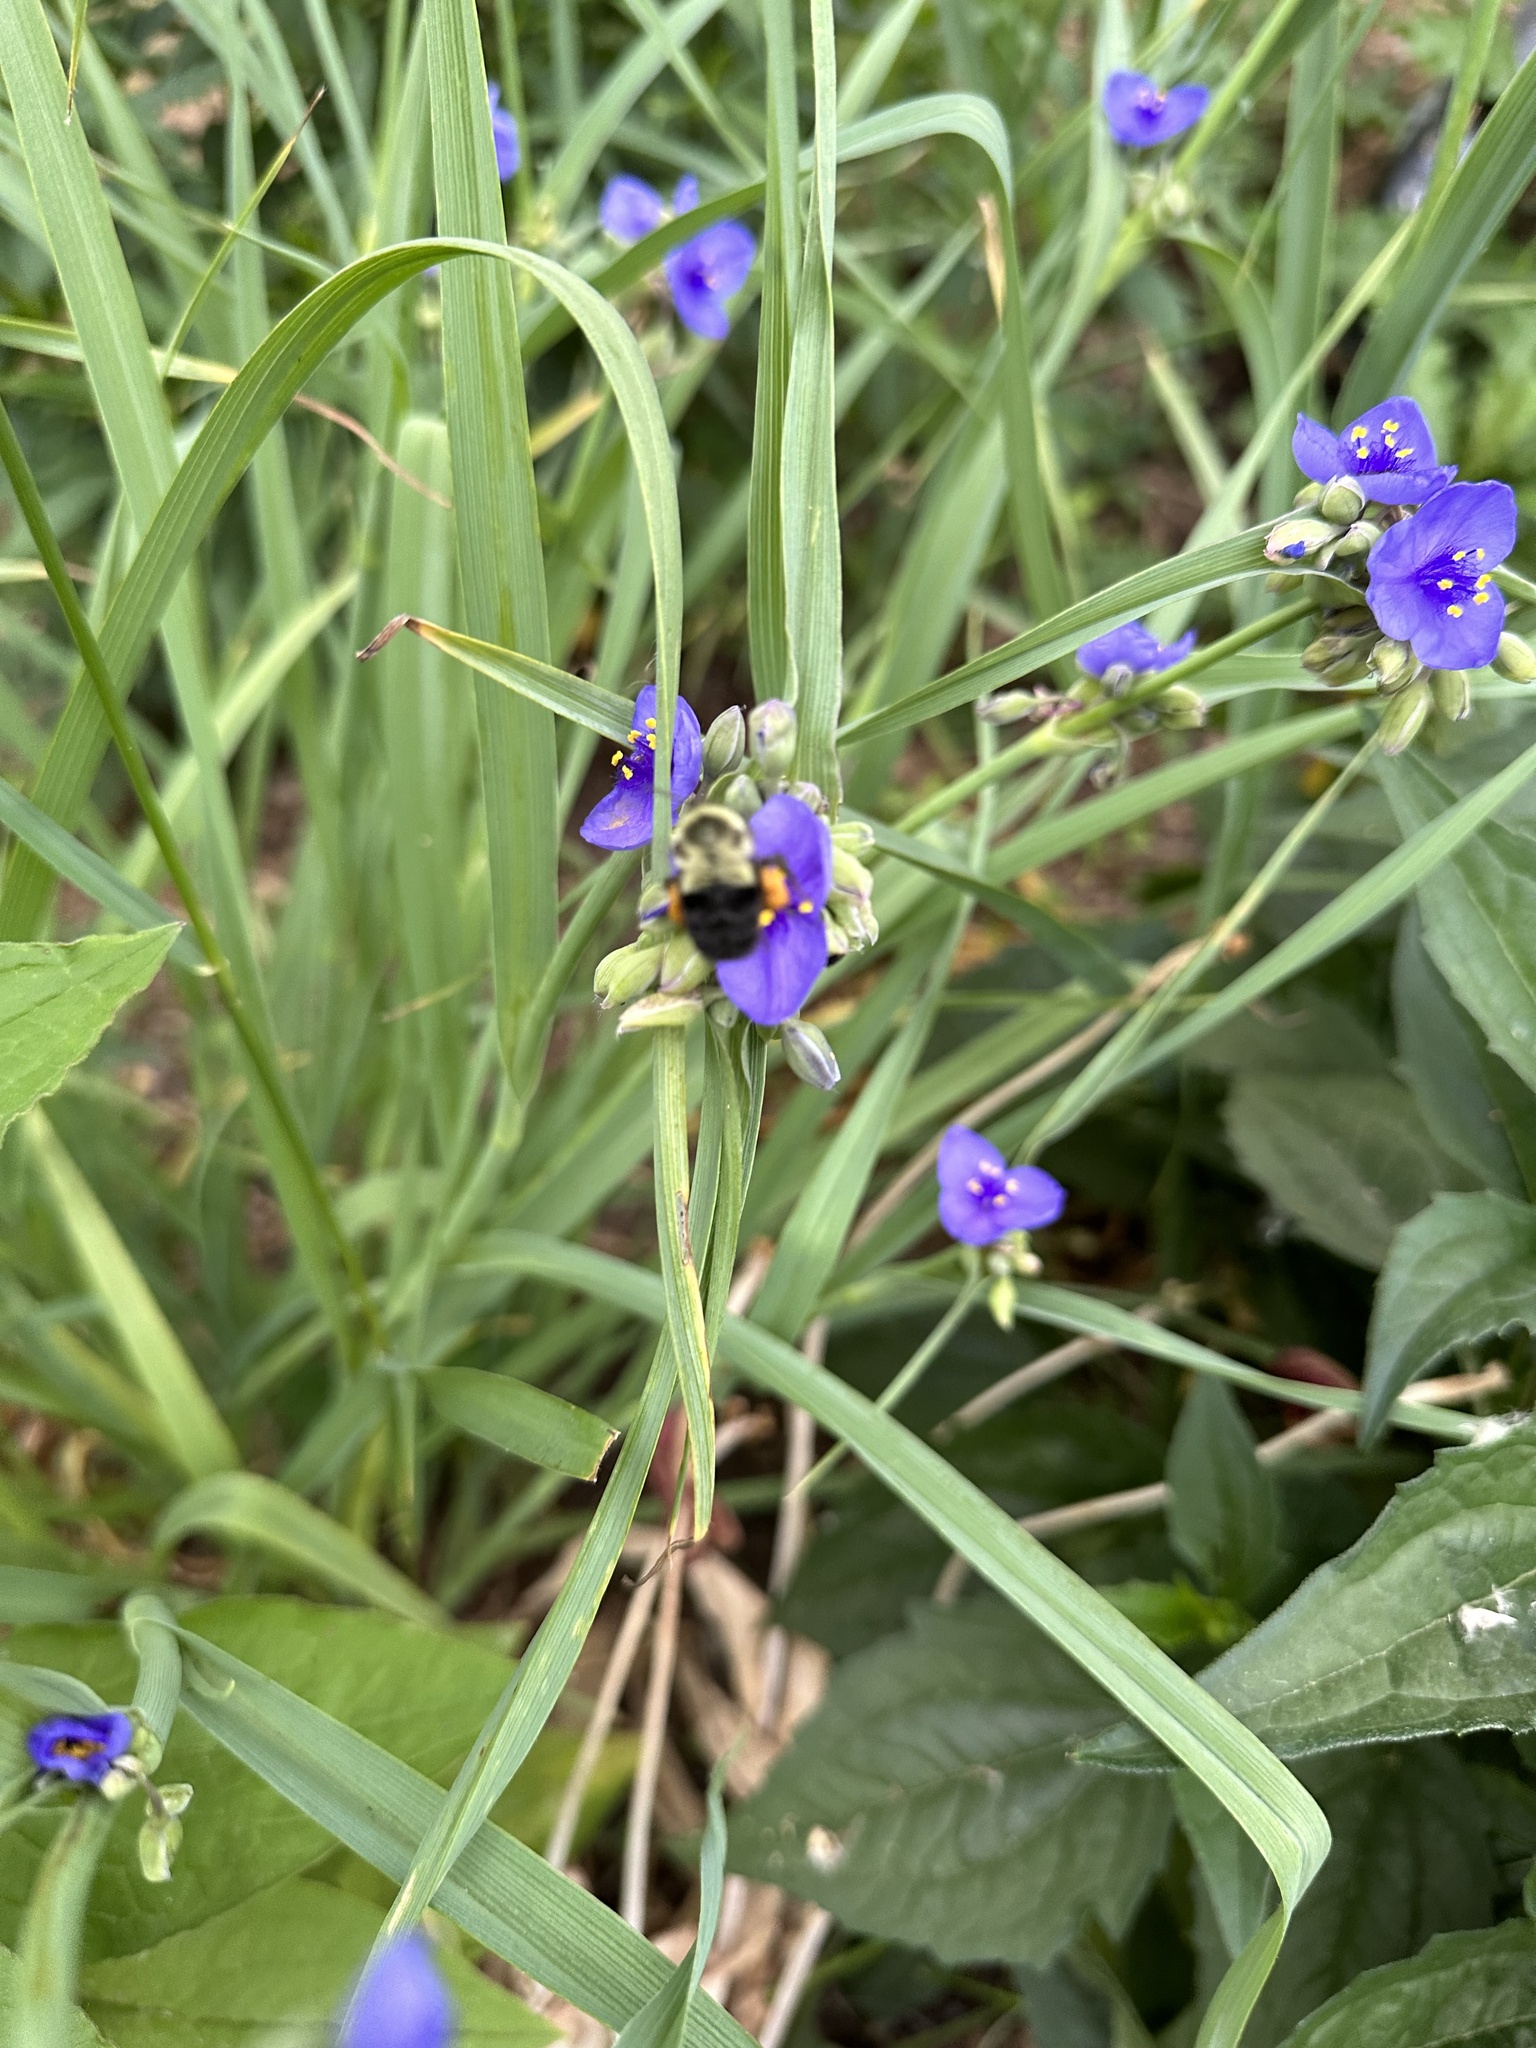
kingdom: Animalia
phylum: Arthropoda
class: Insecta
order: Hymenoptera
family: Apidae
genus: Bombus
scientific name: Bombus impatiens
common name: Common eastern bumble bee
